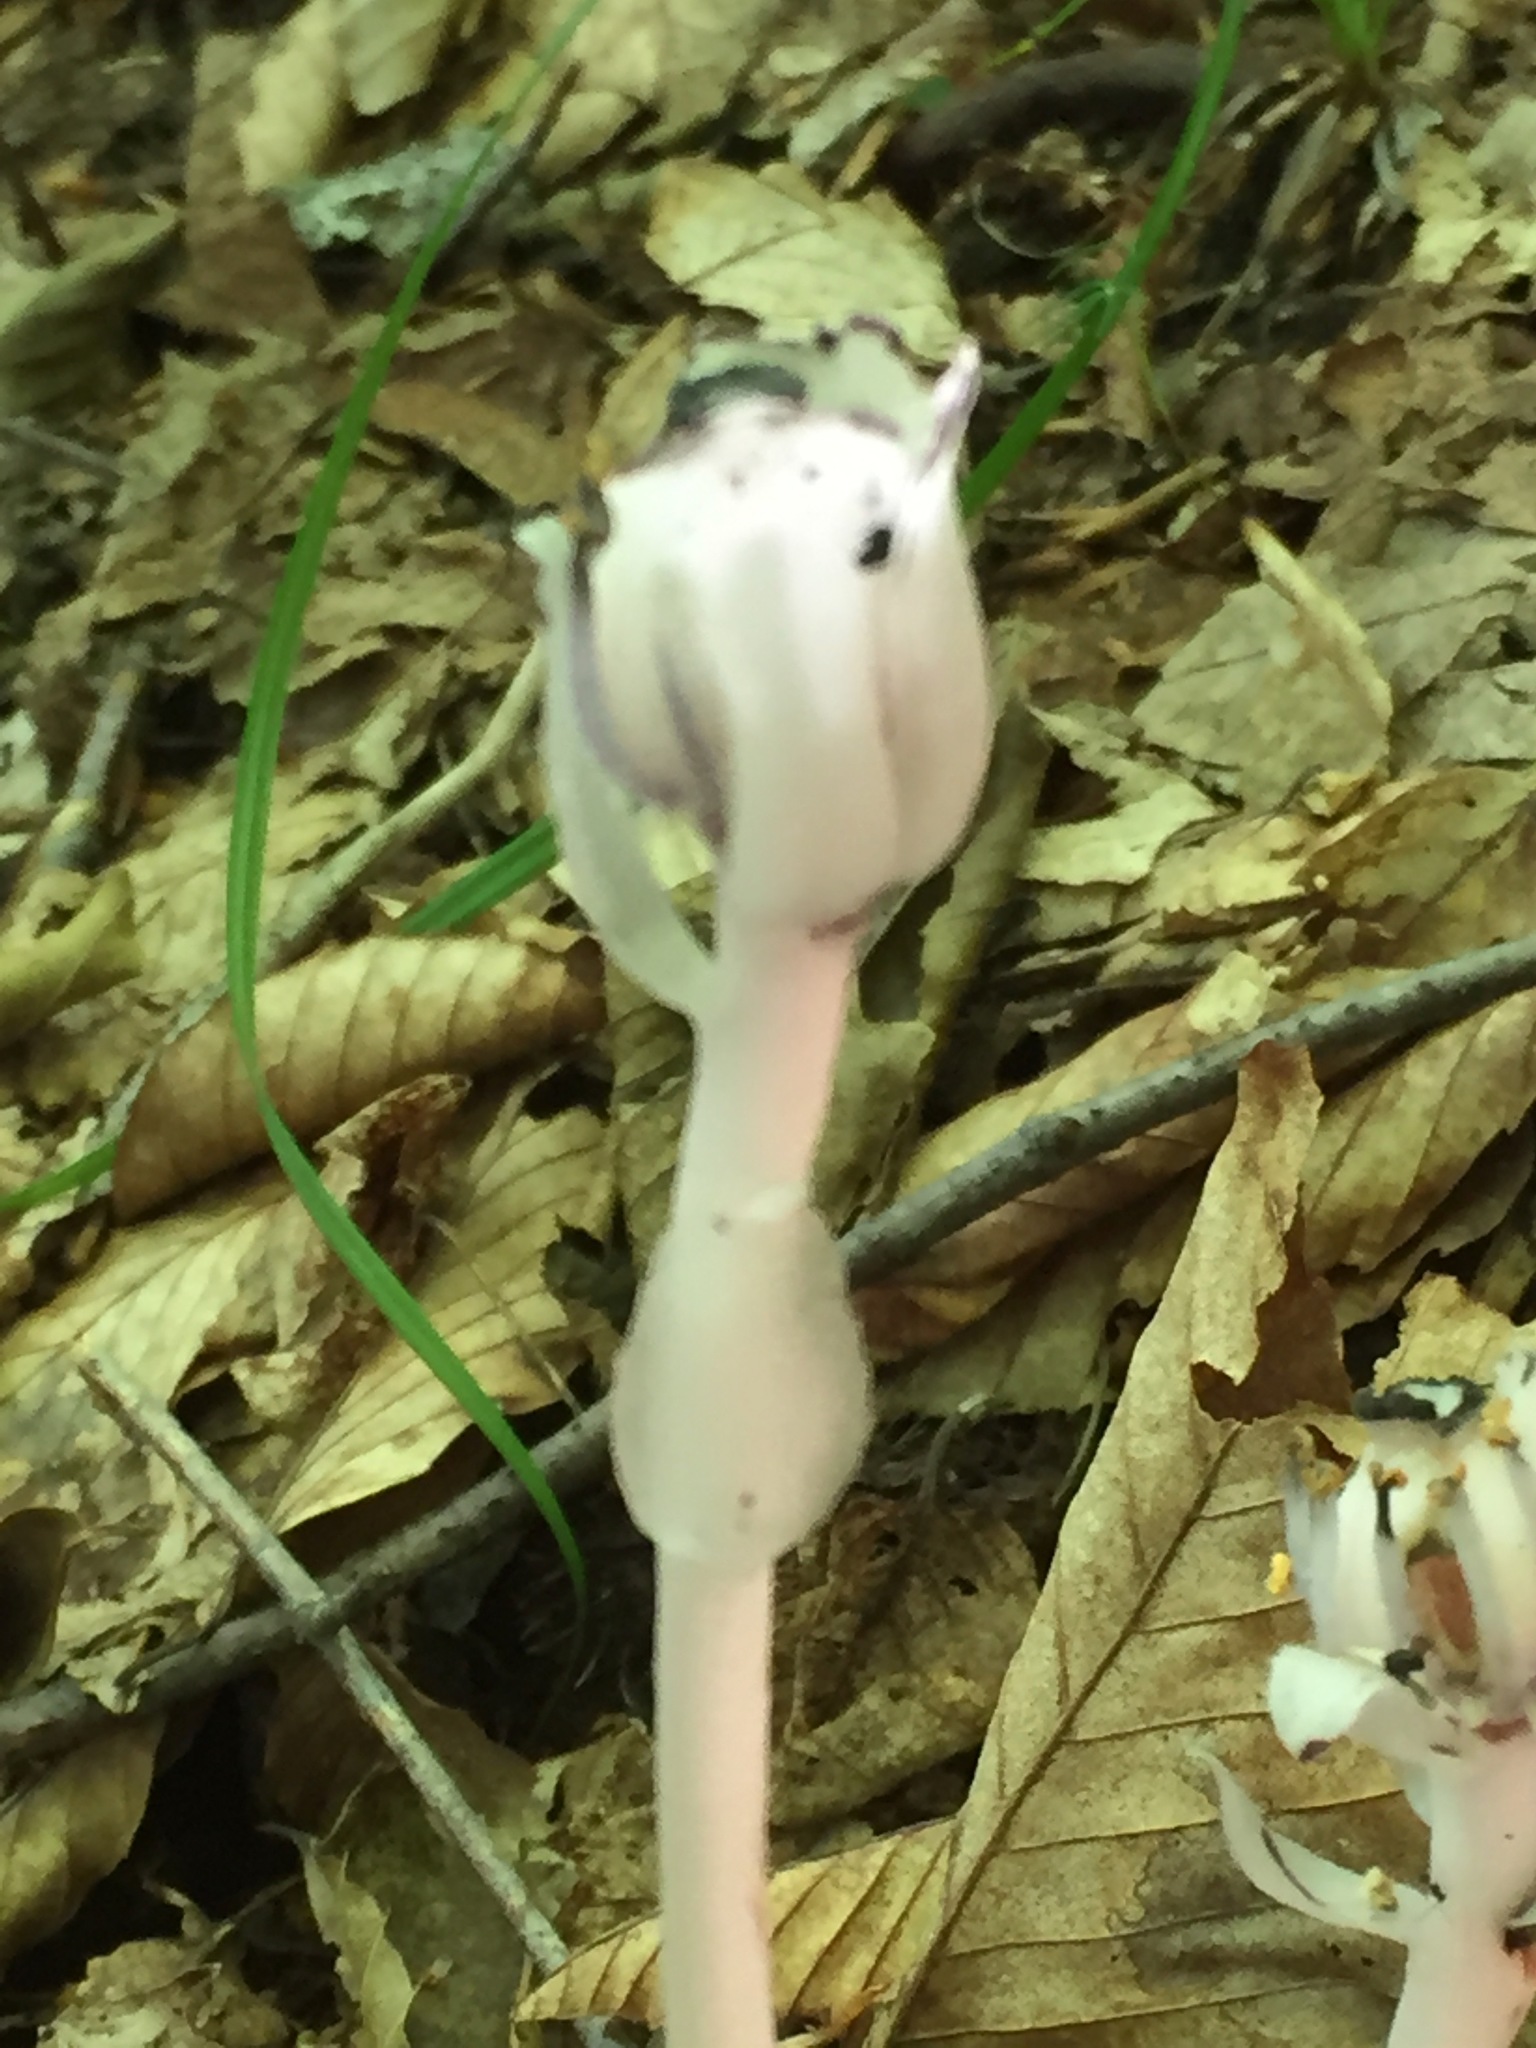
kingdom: Plantae
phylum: Tracheophyta
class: Magnoliopsida
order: Ericales
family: Ericaceae
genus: Monotropa
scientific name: Monotropa uniflora
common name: Convulsion root
